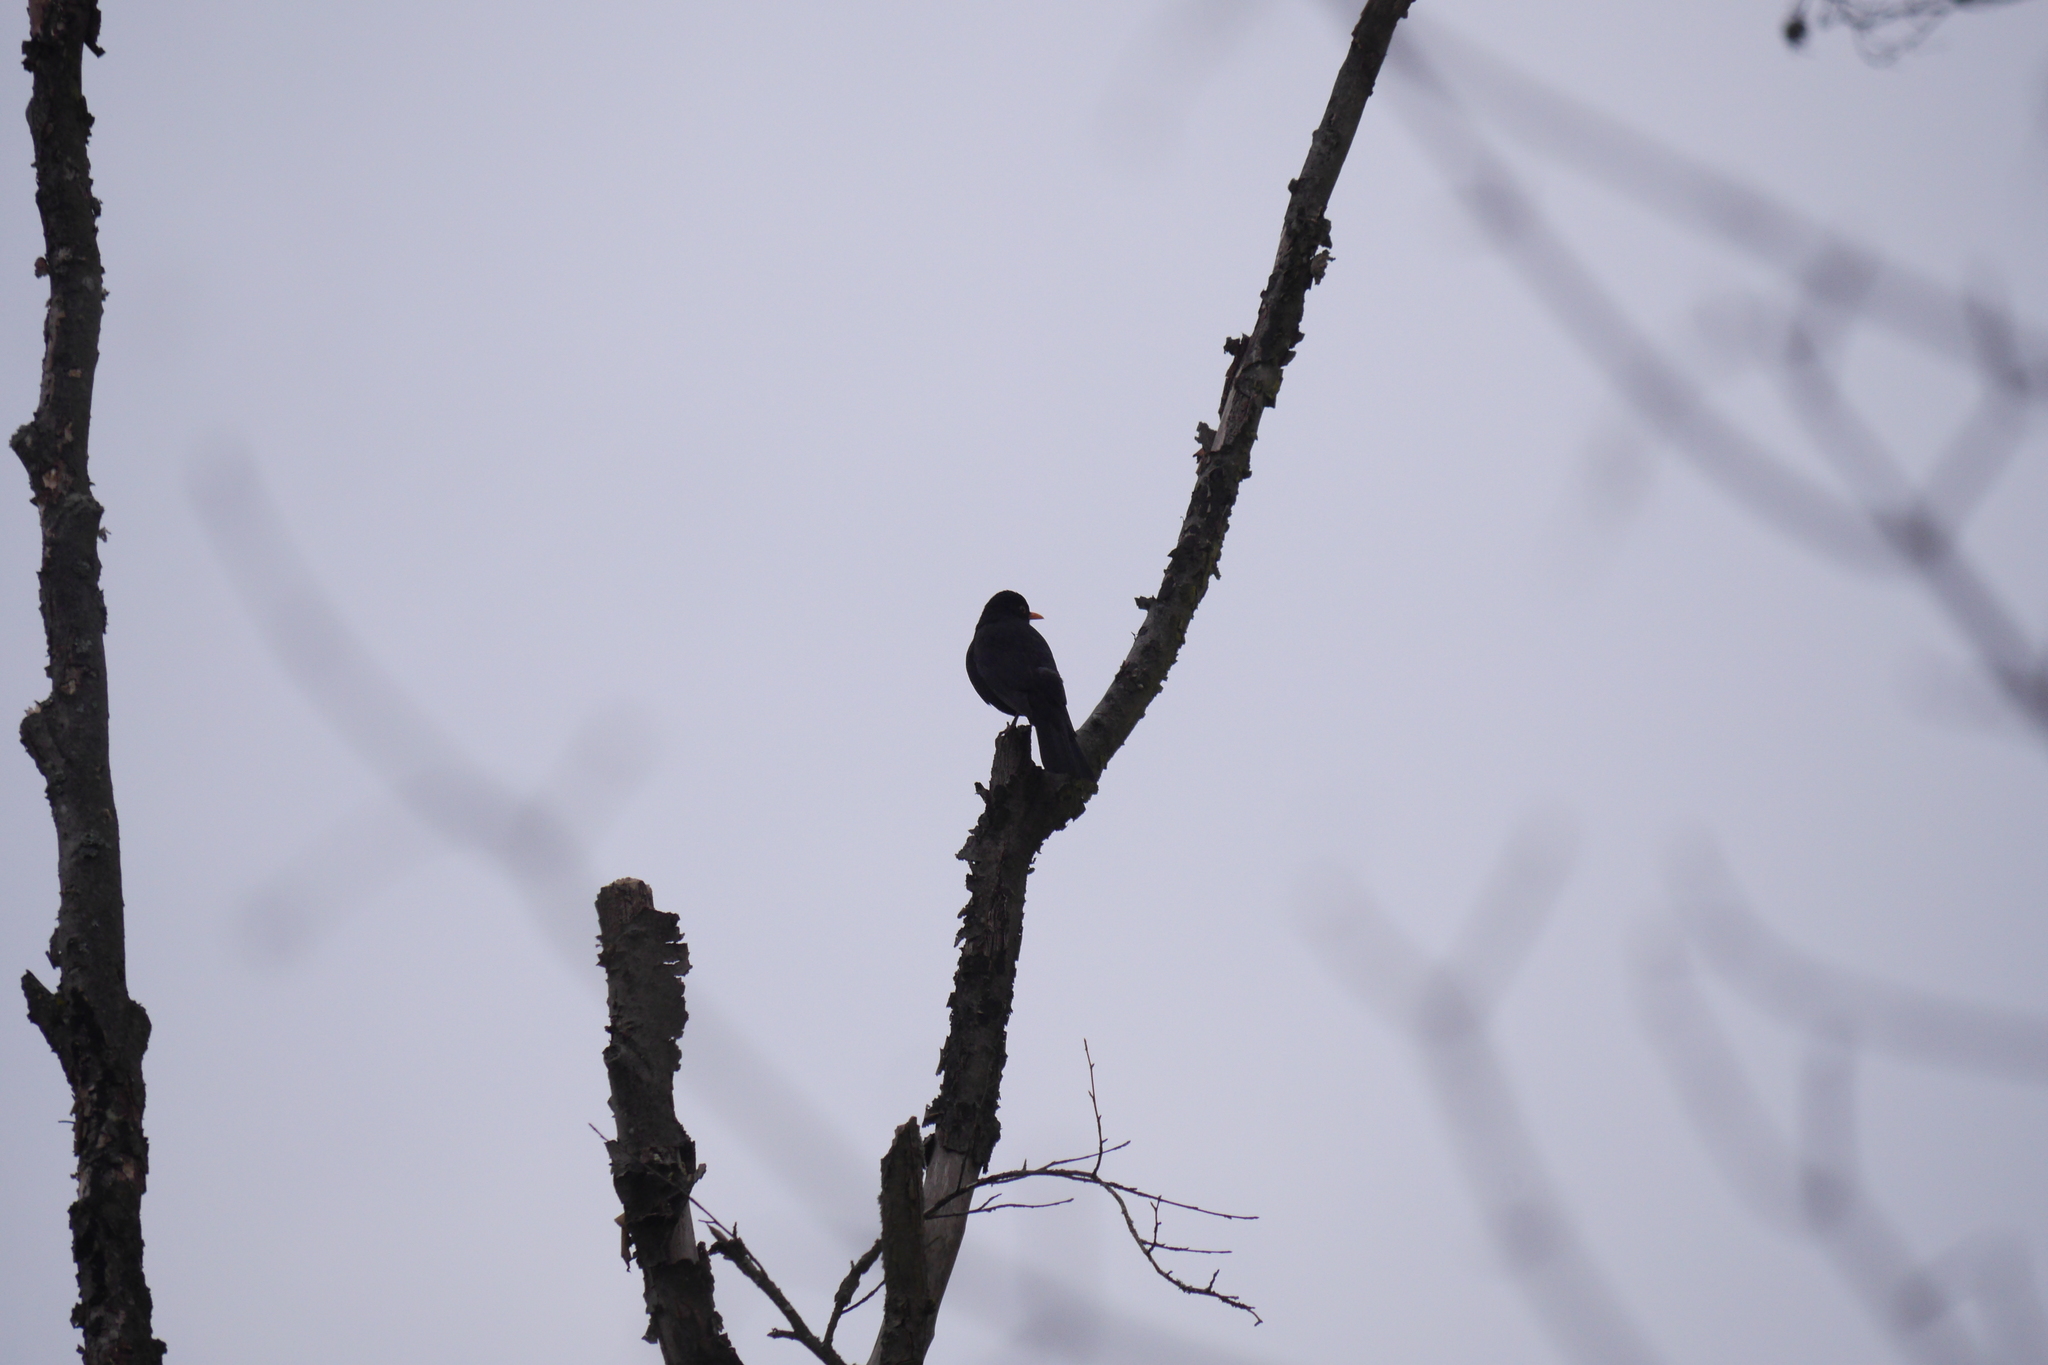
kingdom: Animalia
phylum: Chordata
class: Aves
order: Passeriformes
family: Turdidae
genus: Turdus
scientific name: Turdus merula
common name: Common blackbird
